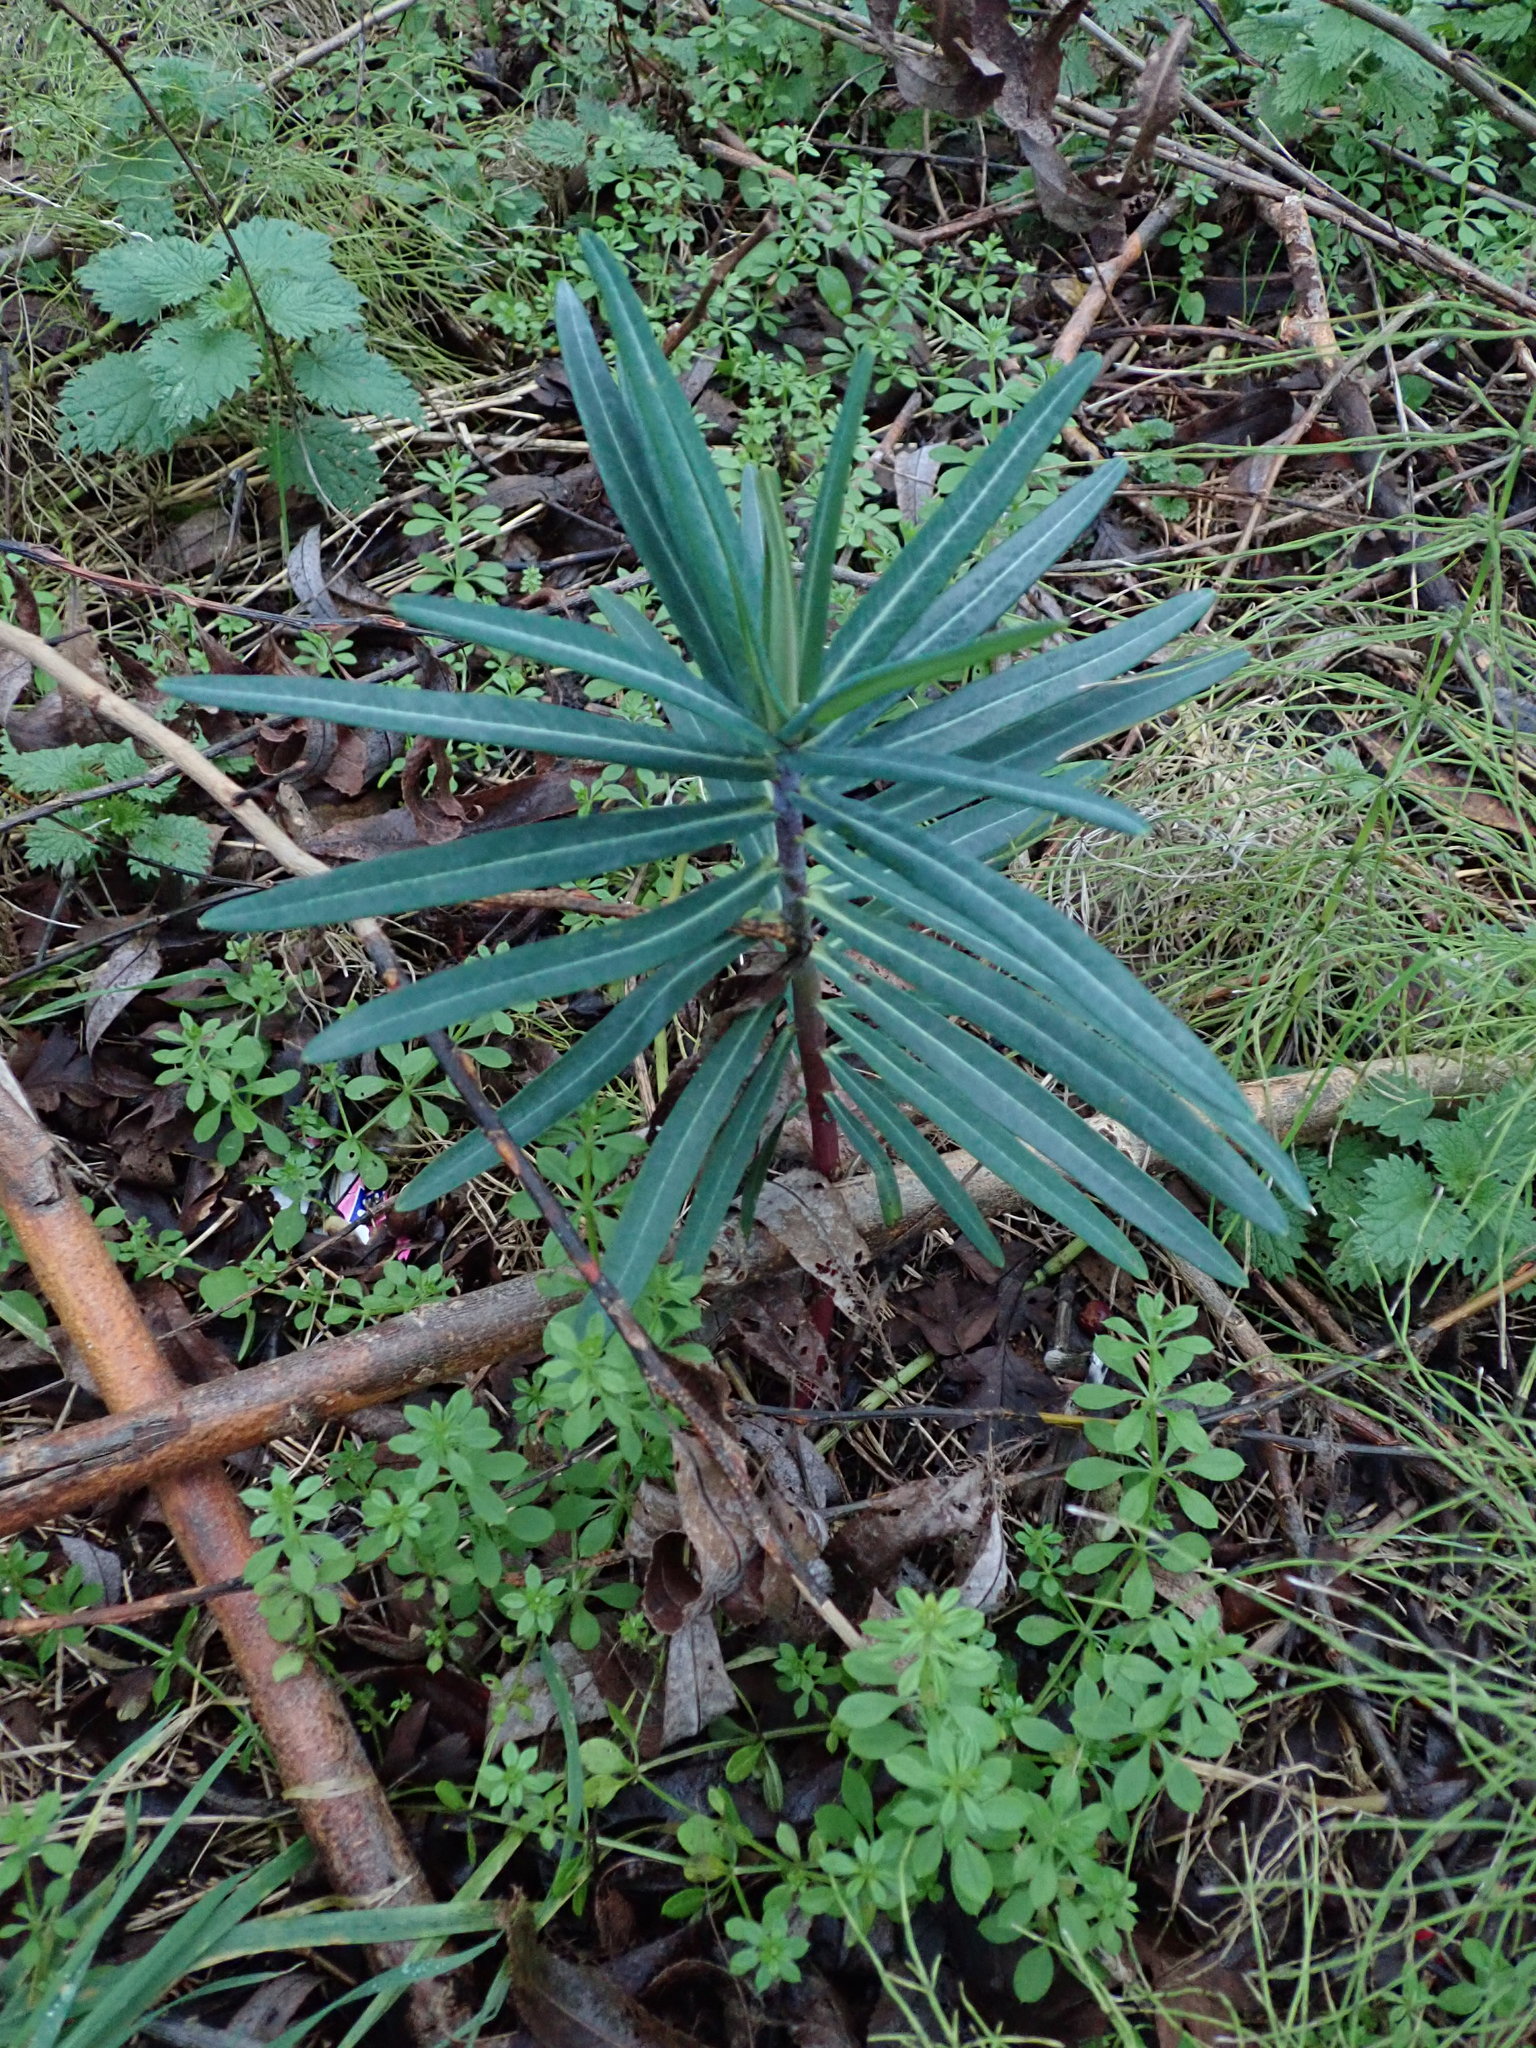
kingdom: Plantae
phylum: Tracheophyta
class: Magnoliopsida
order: Malpighiales
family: Euphorbiaceae
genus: Euphorbia
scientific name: Euphorbia lathyris
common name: Caper spurge
